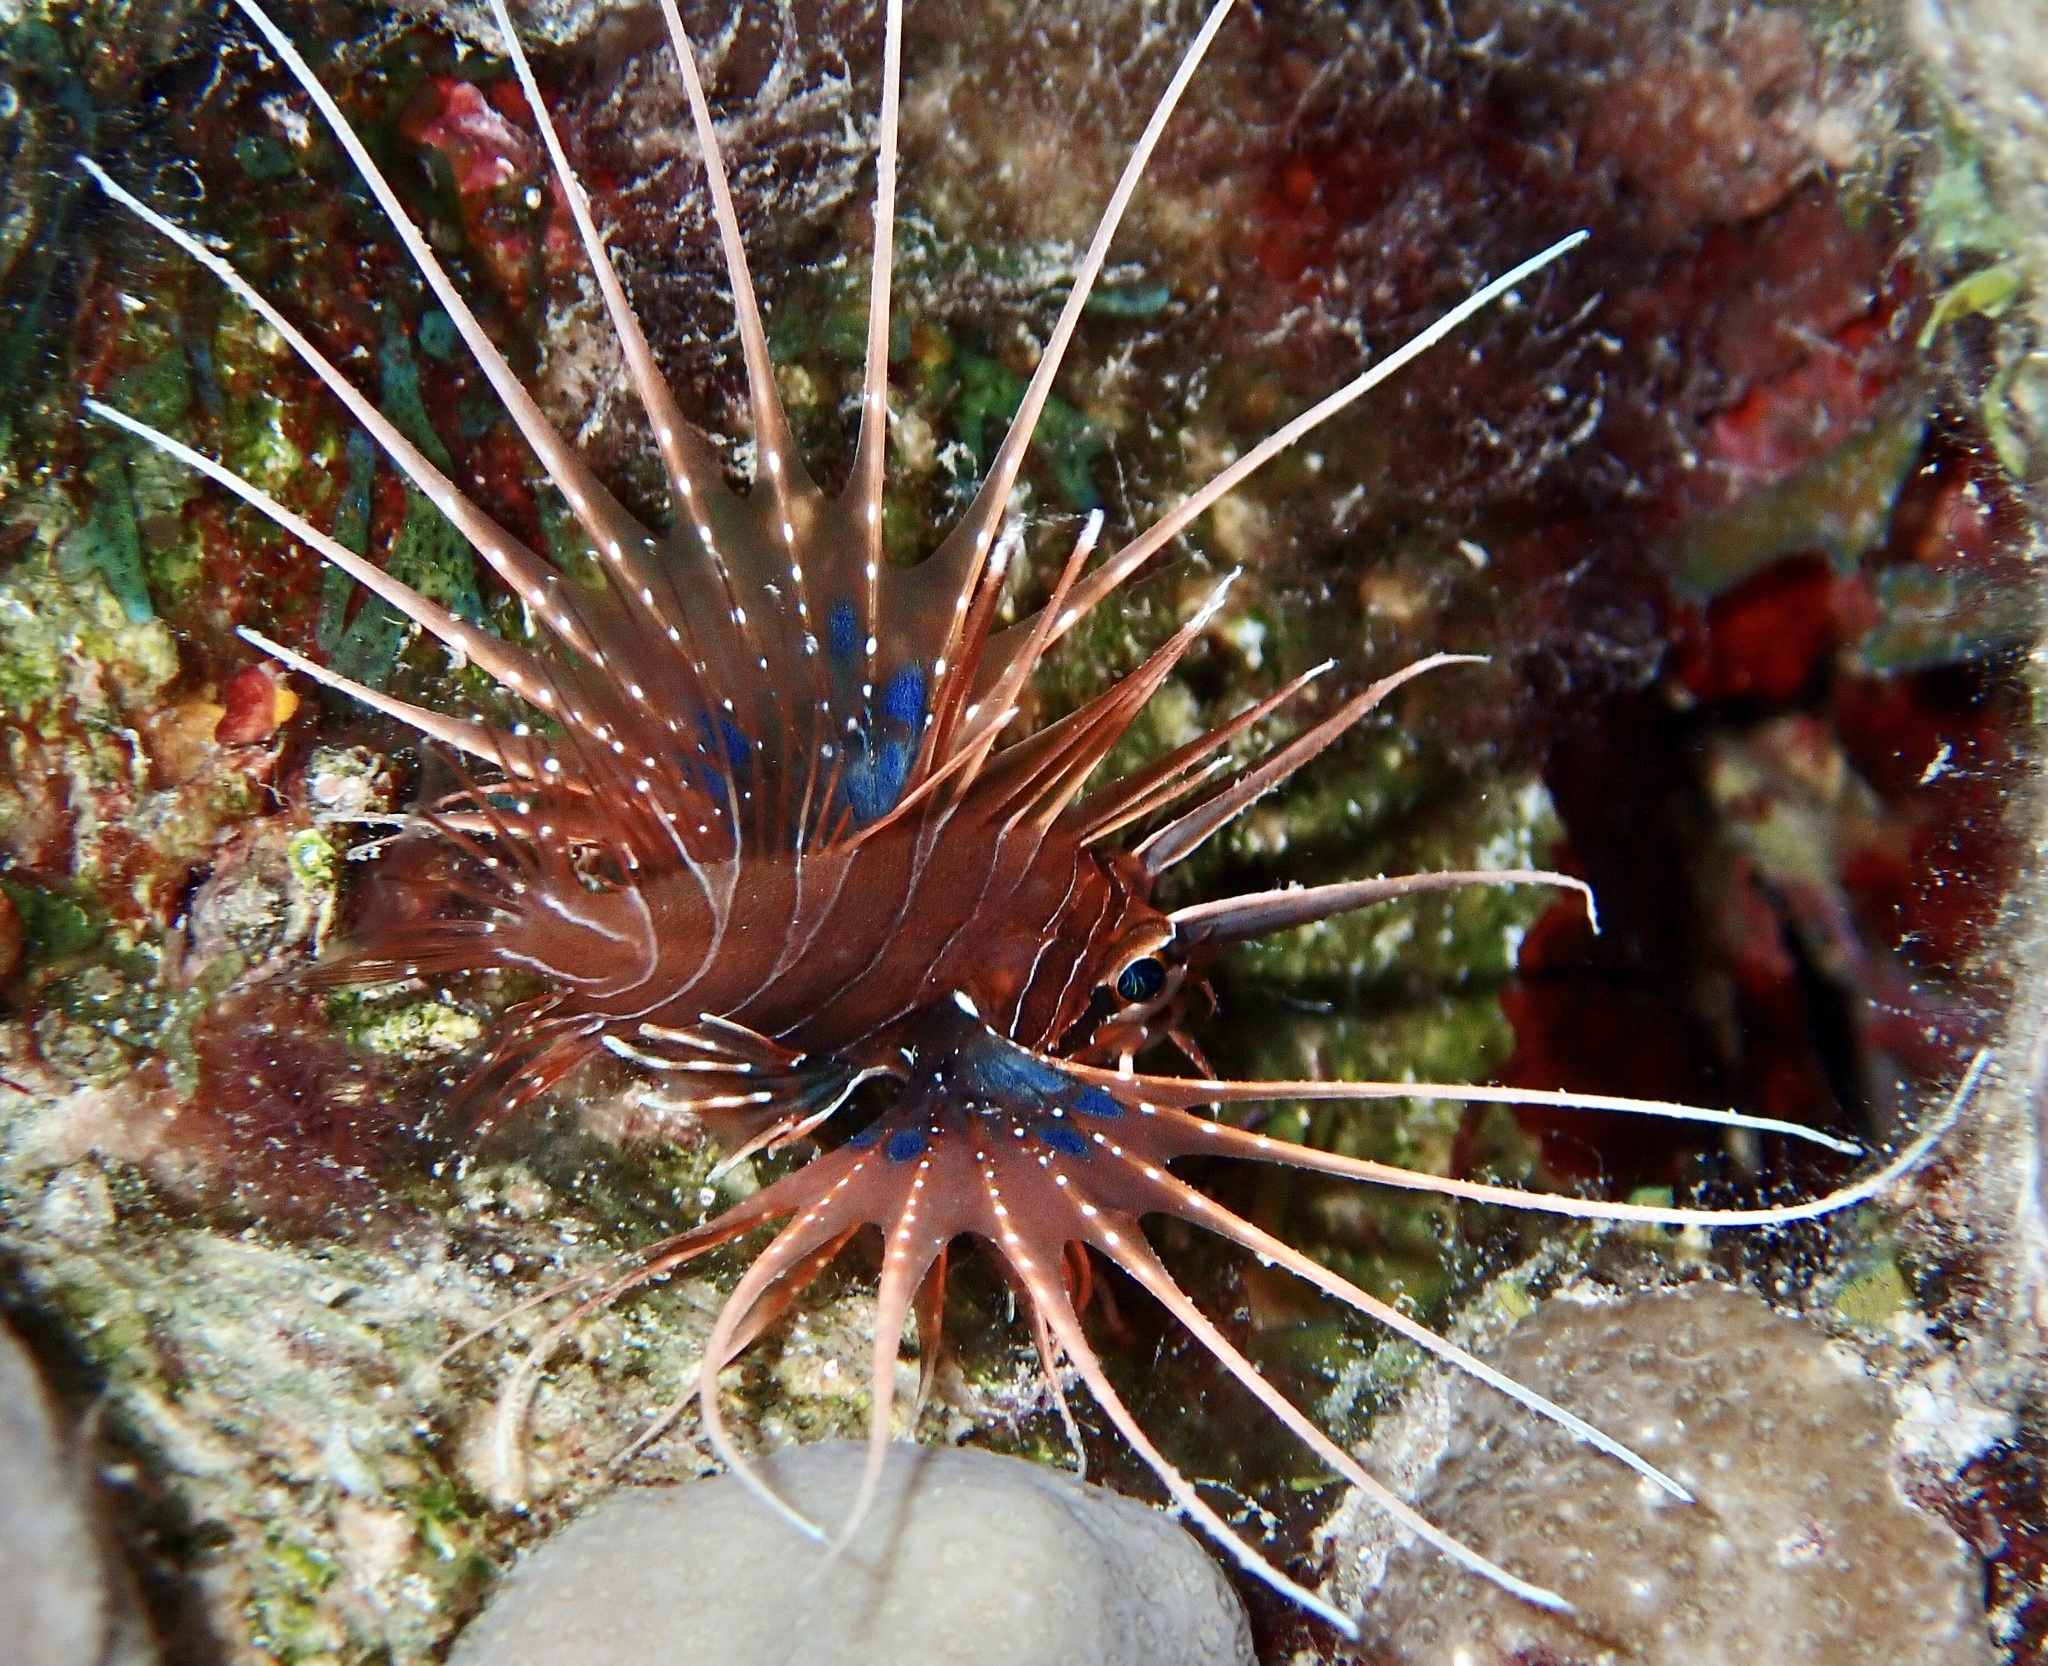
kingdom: Animalia
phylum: Chordata
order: Scorpaeniformes
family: Scorpaenidae
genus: Pterois
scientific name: Pterois cincta
